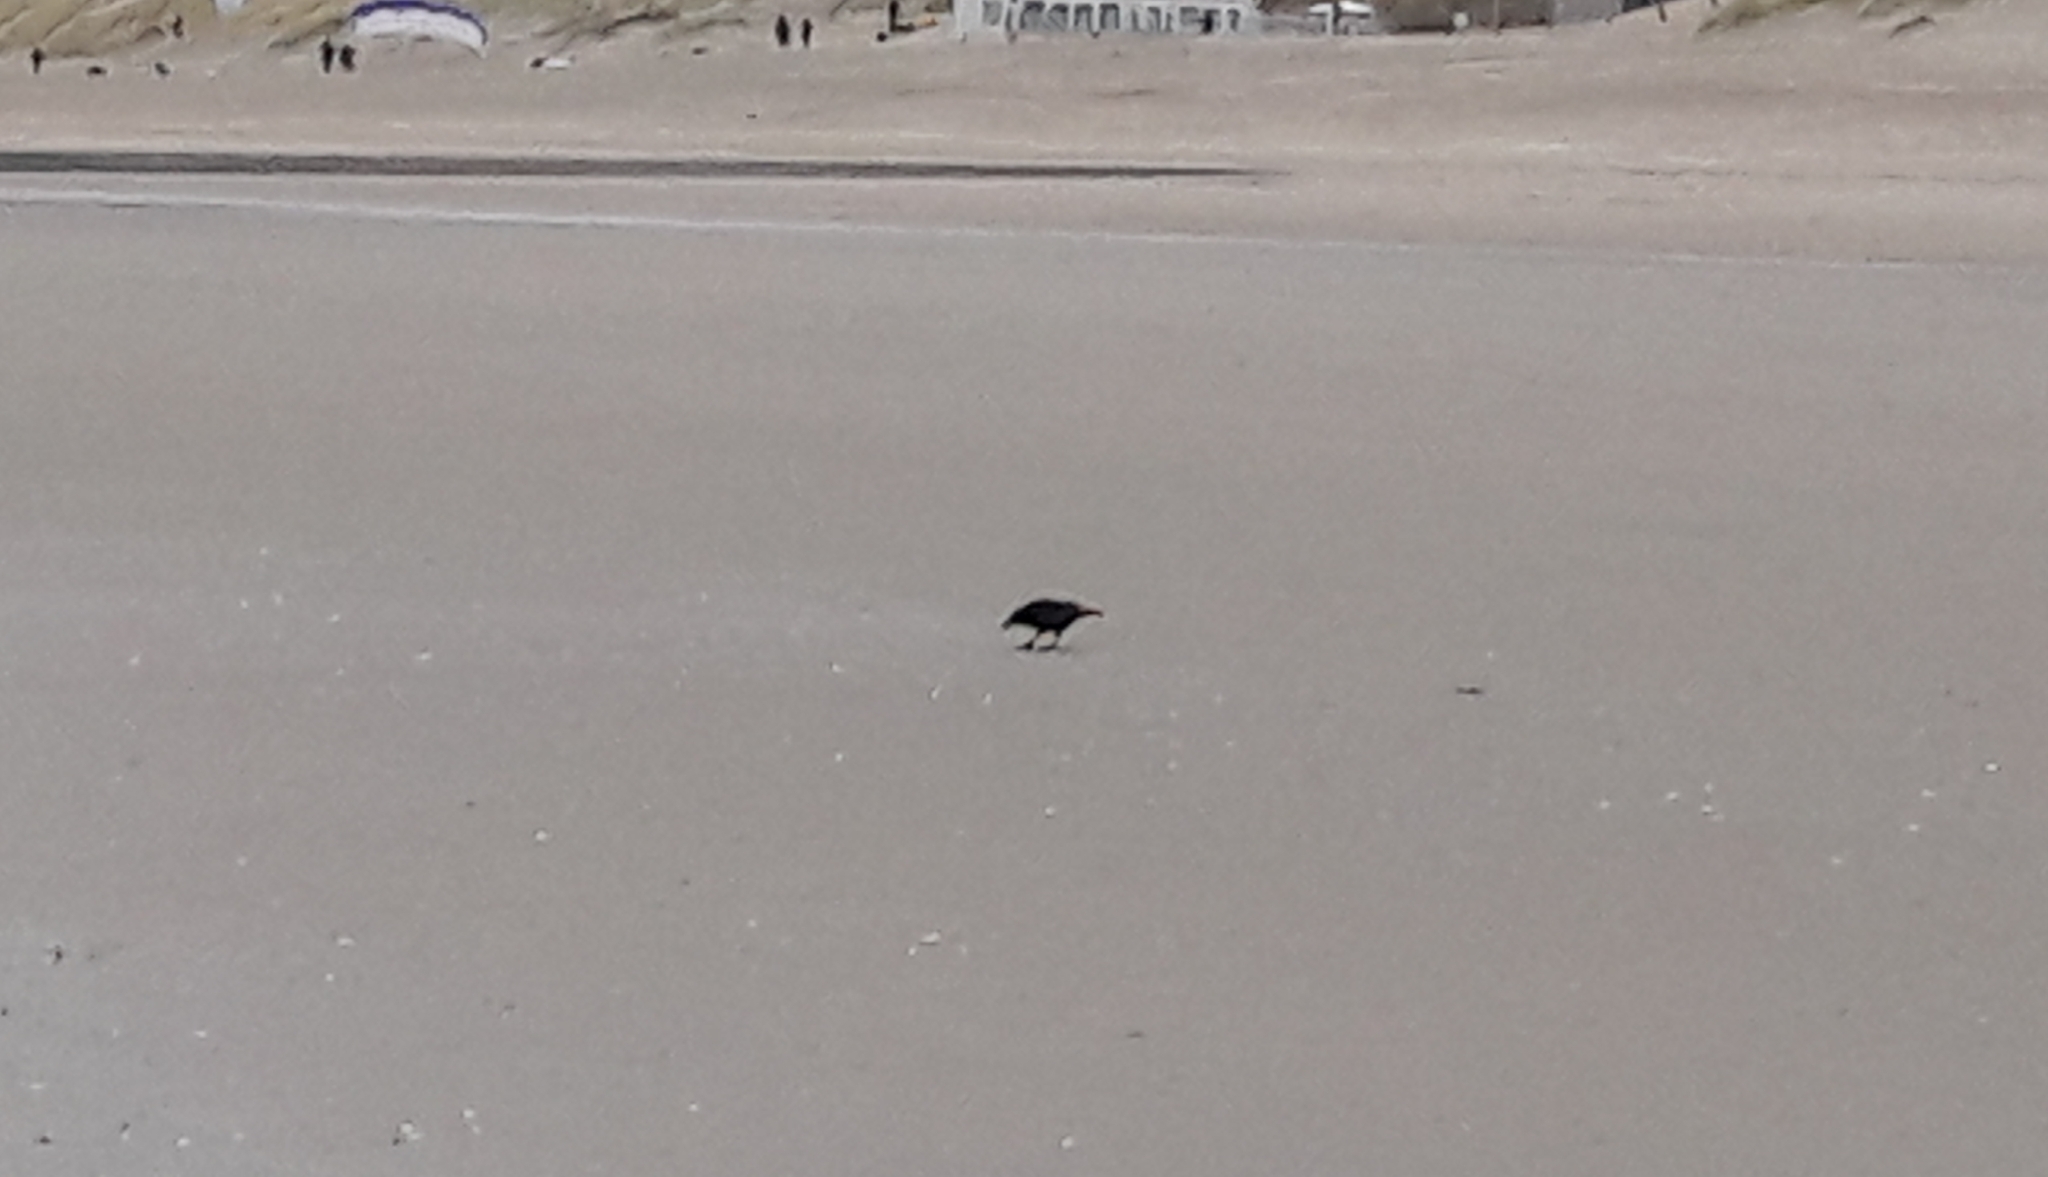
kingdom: Animalia
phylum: Chordata
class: Aves
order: Passeriformes
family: Corvidae
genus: Corvus
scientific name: Corvus corone
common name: Carrion crow
